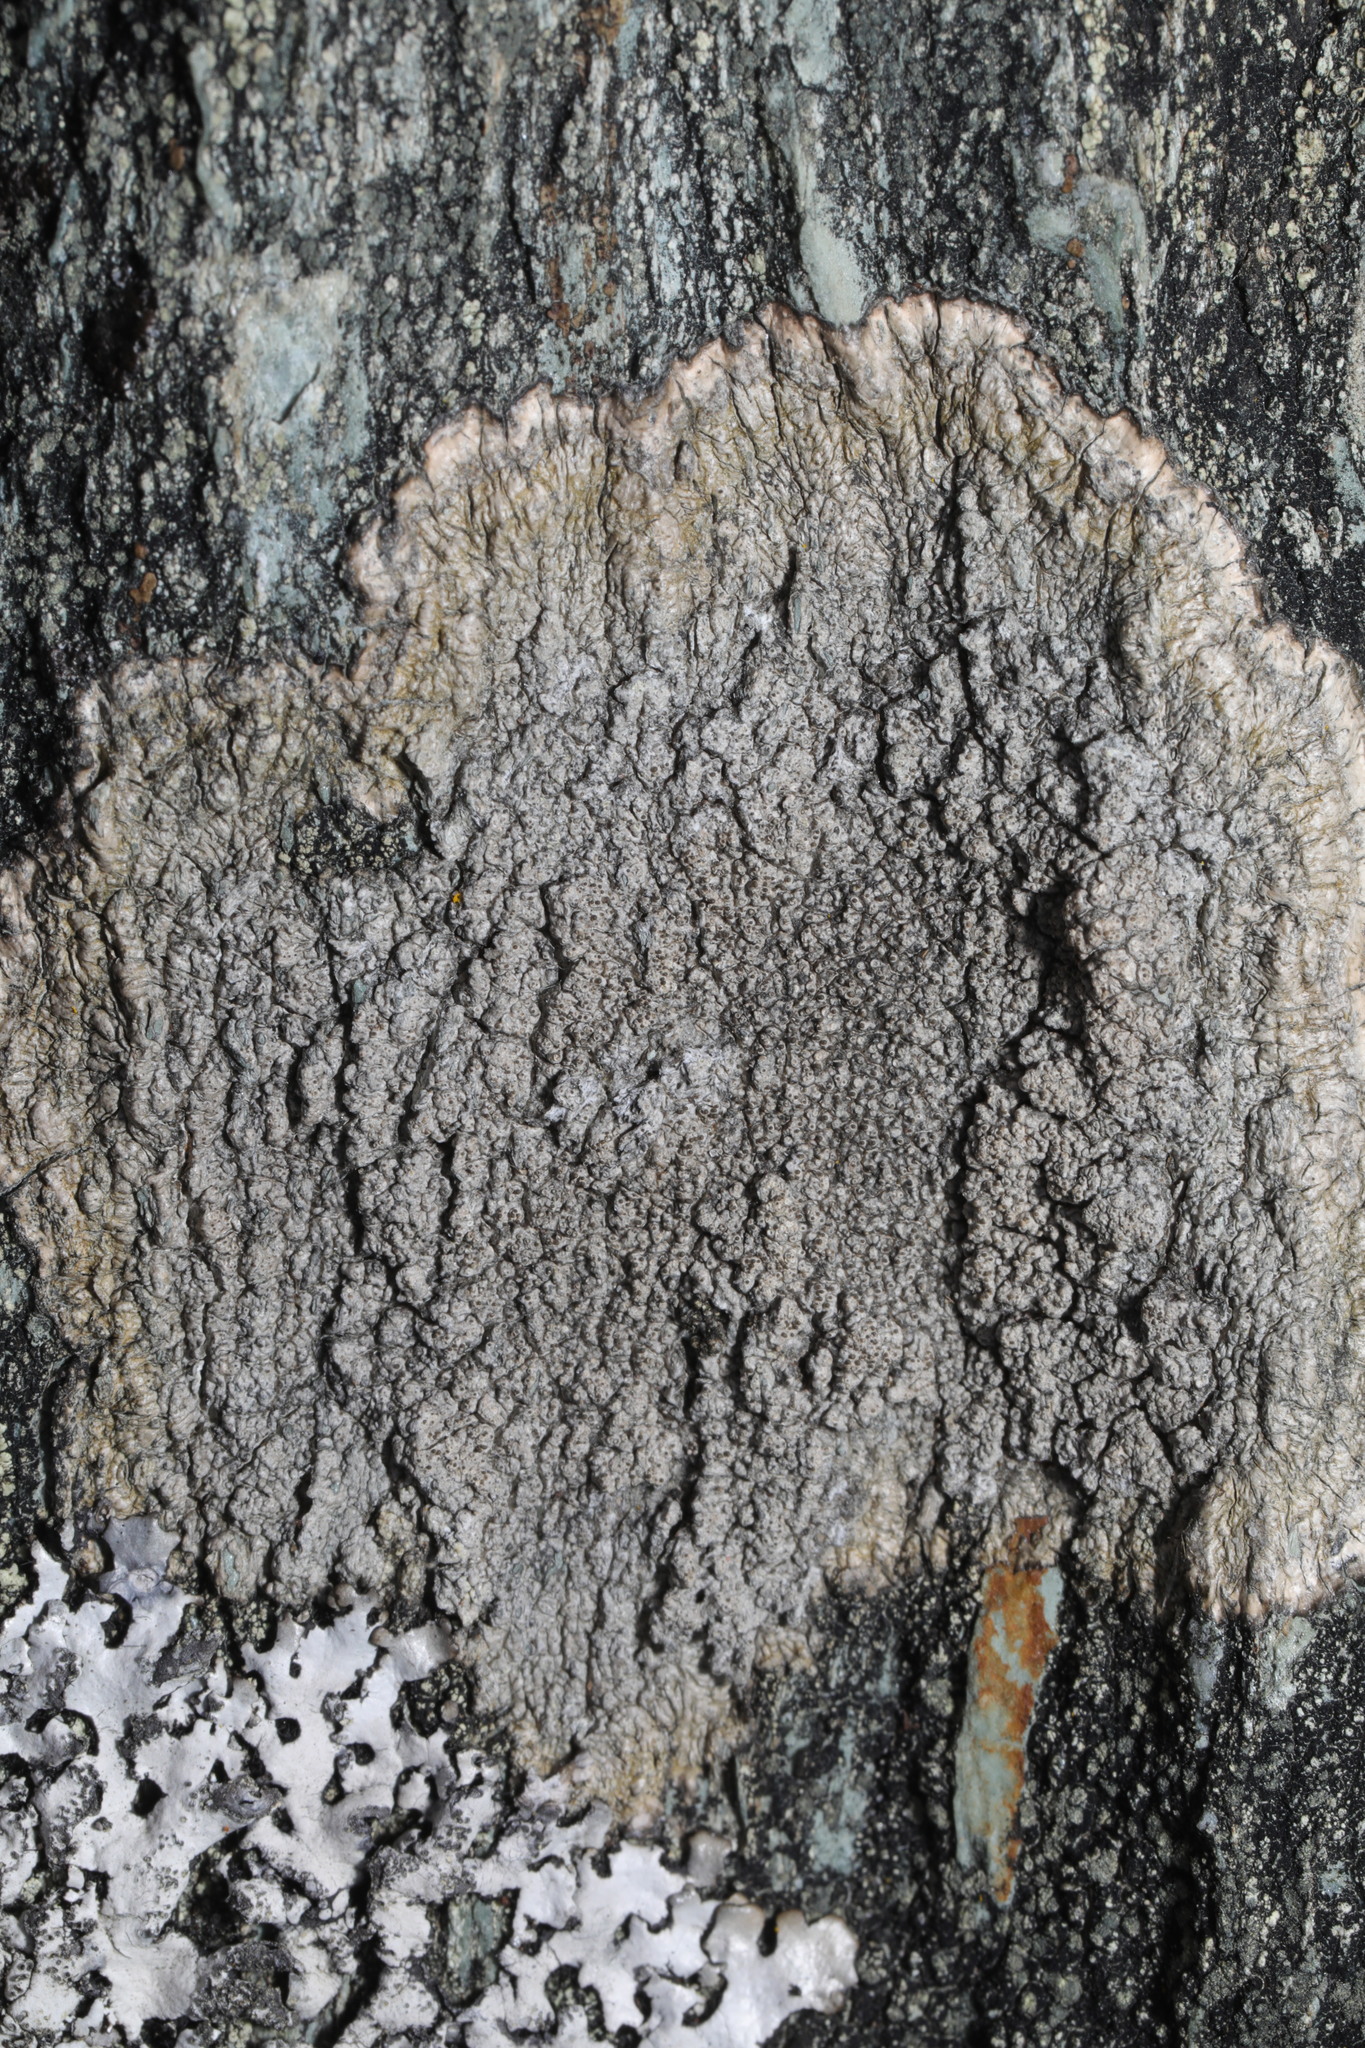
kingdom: Fungi
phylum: Ascomycota
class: Lecanoromycetes
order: Pertusariales
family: Pertusariaceae
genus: Pertusaria
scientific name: Pertusaria pseudocorallina
